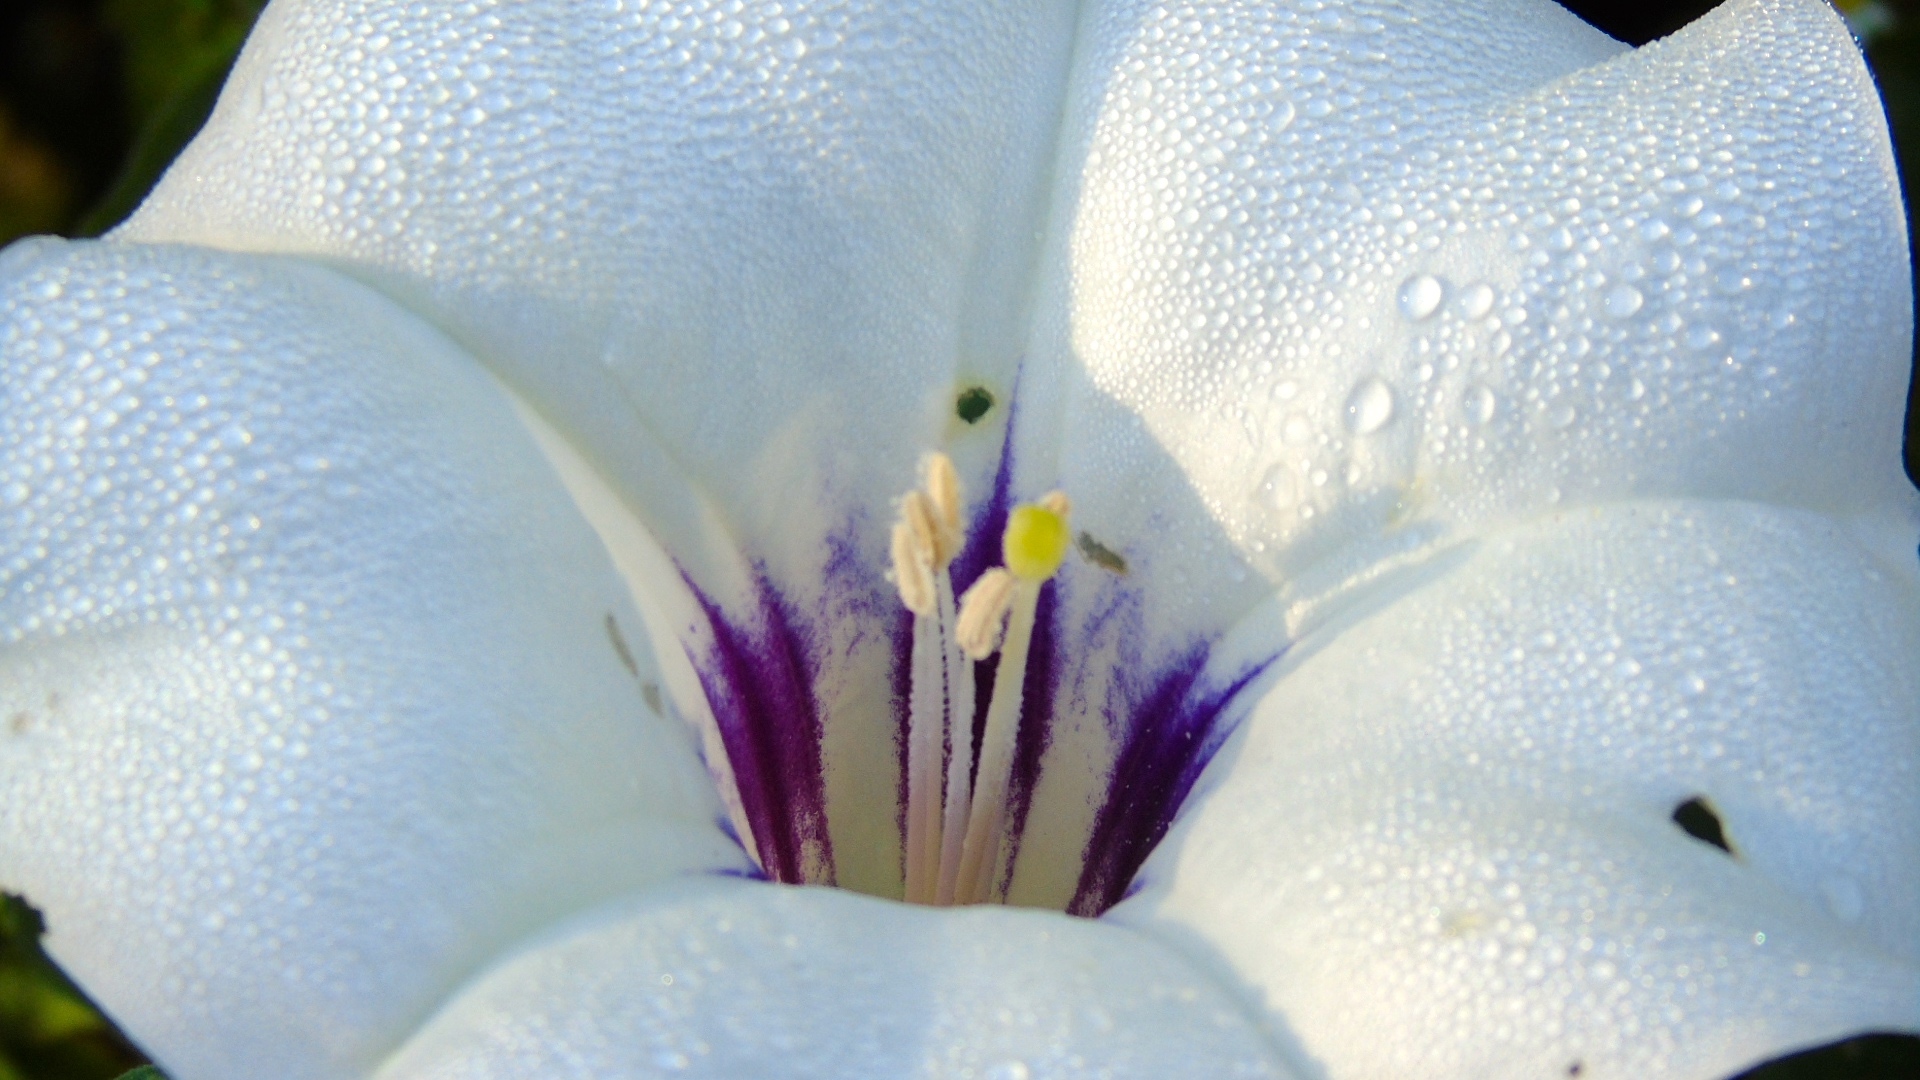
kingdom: Plantae
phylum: Tracheophyta
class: Magnoliopsida
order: Solanales
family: Solanaceae
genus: Datura
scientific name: Datura discolor
